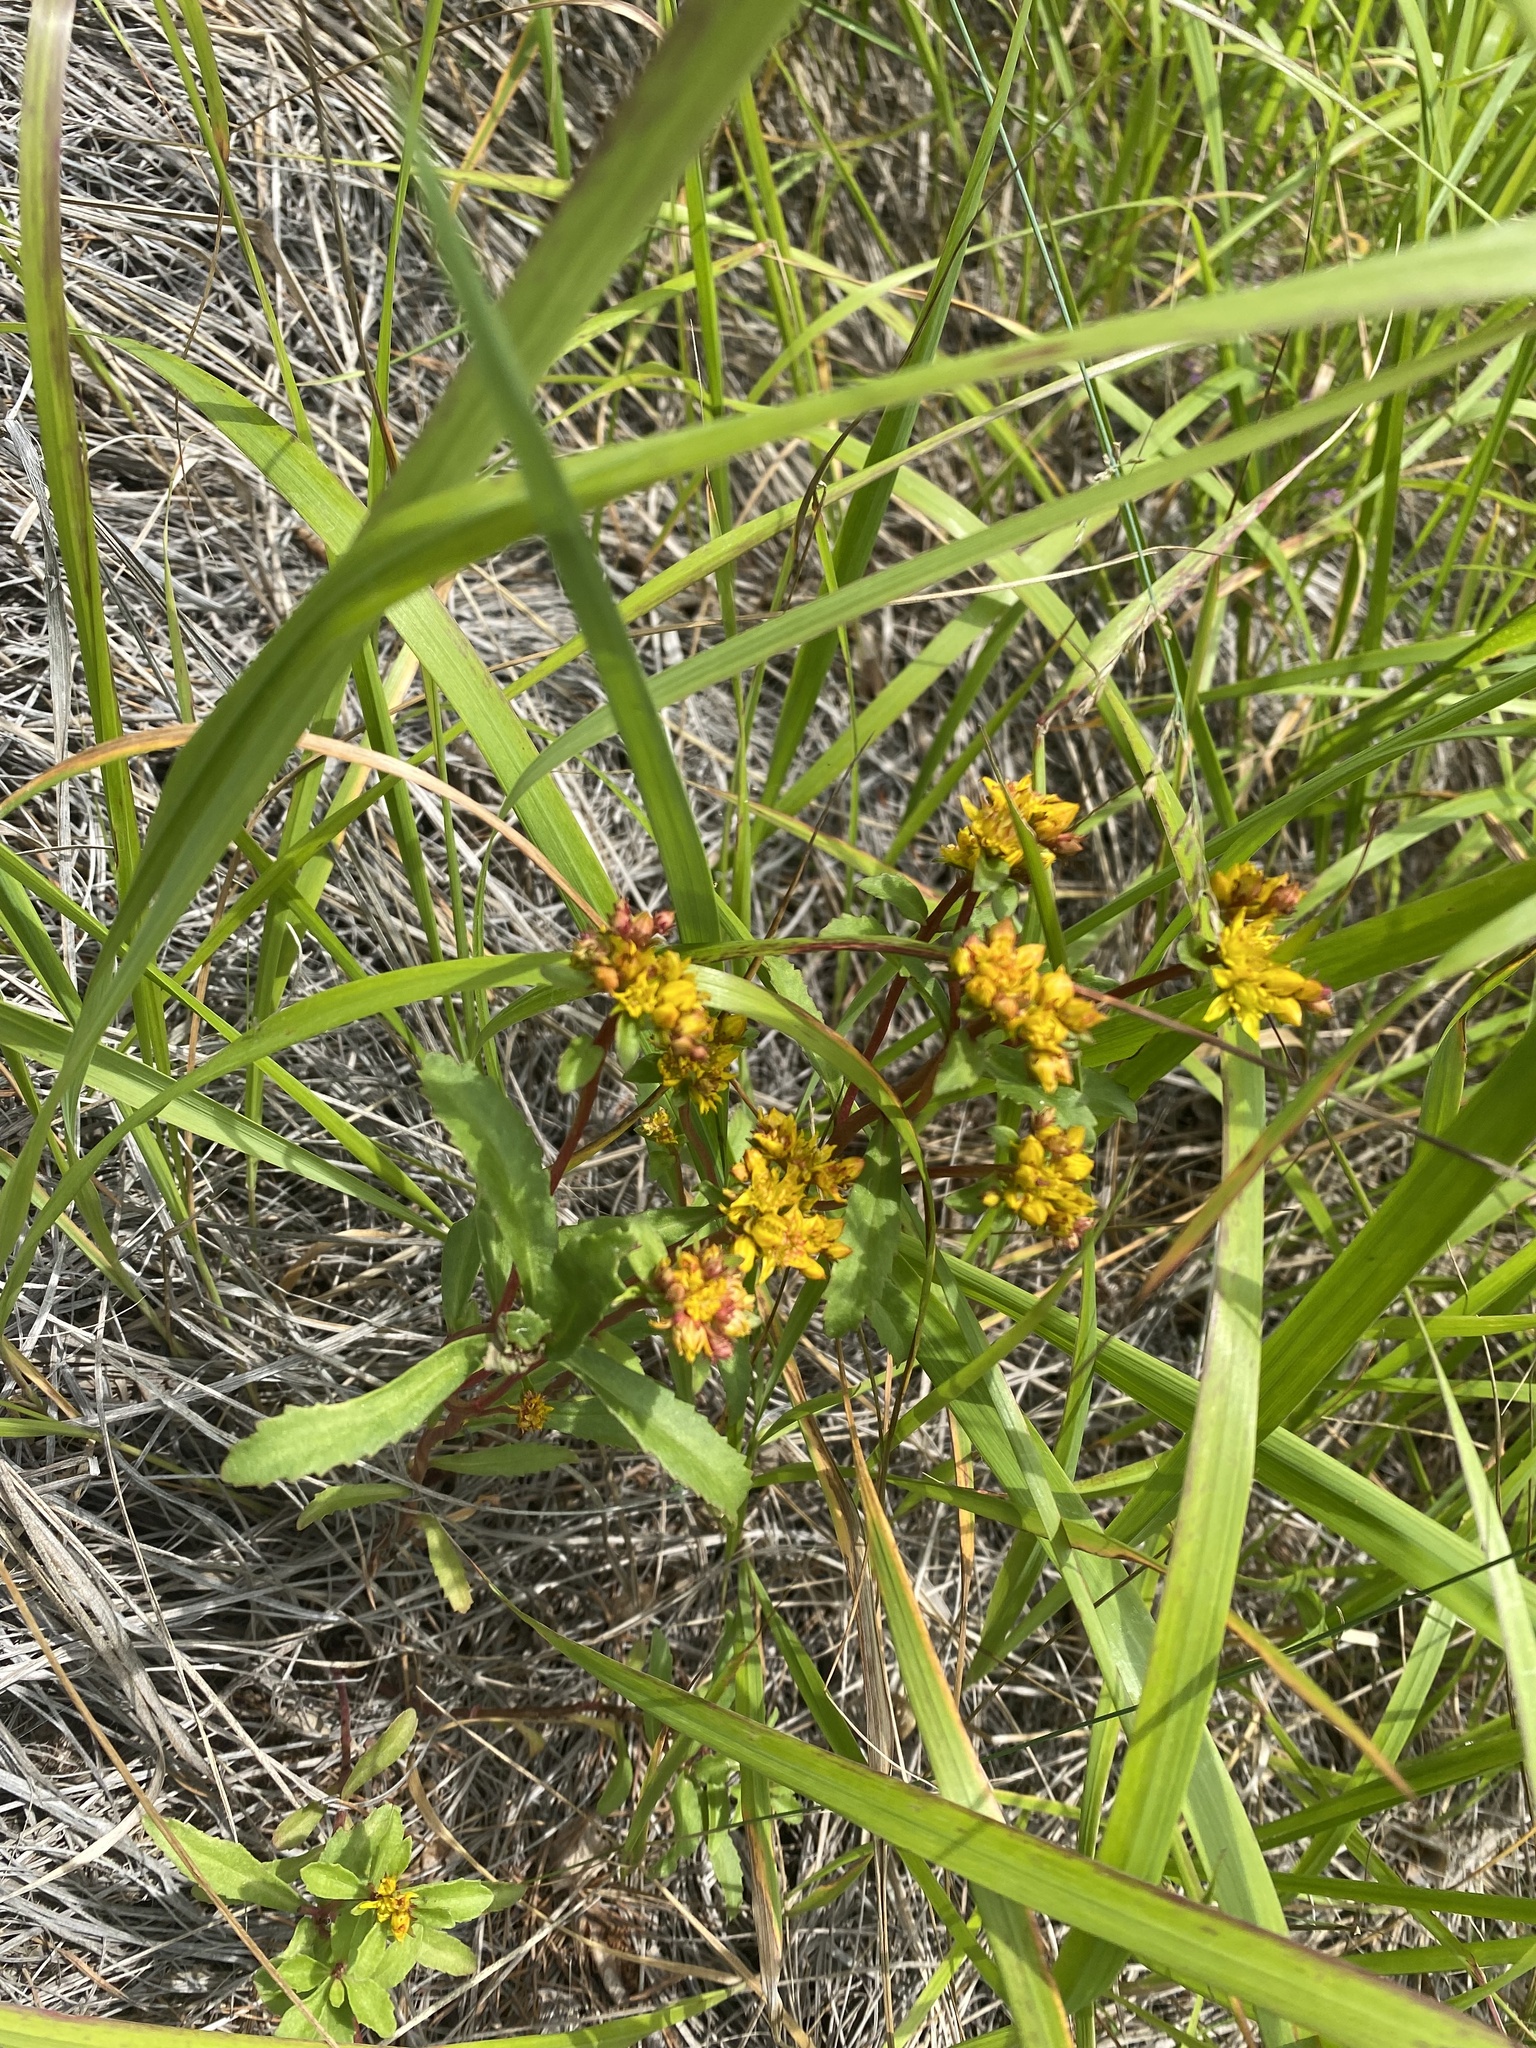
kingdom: Plantae
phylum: Tracheophyta
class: Magnoliopsida
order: Saxifragales
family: Crassulaceae
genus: Phedimus
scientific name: Phedimus aizoon
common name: Orpin aizoon
